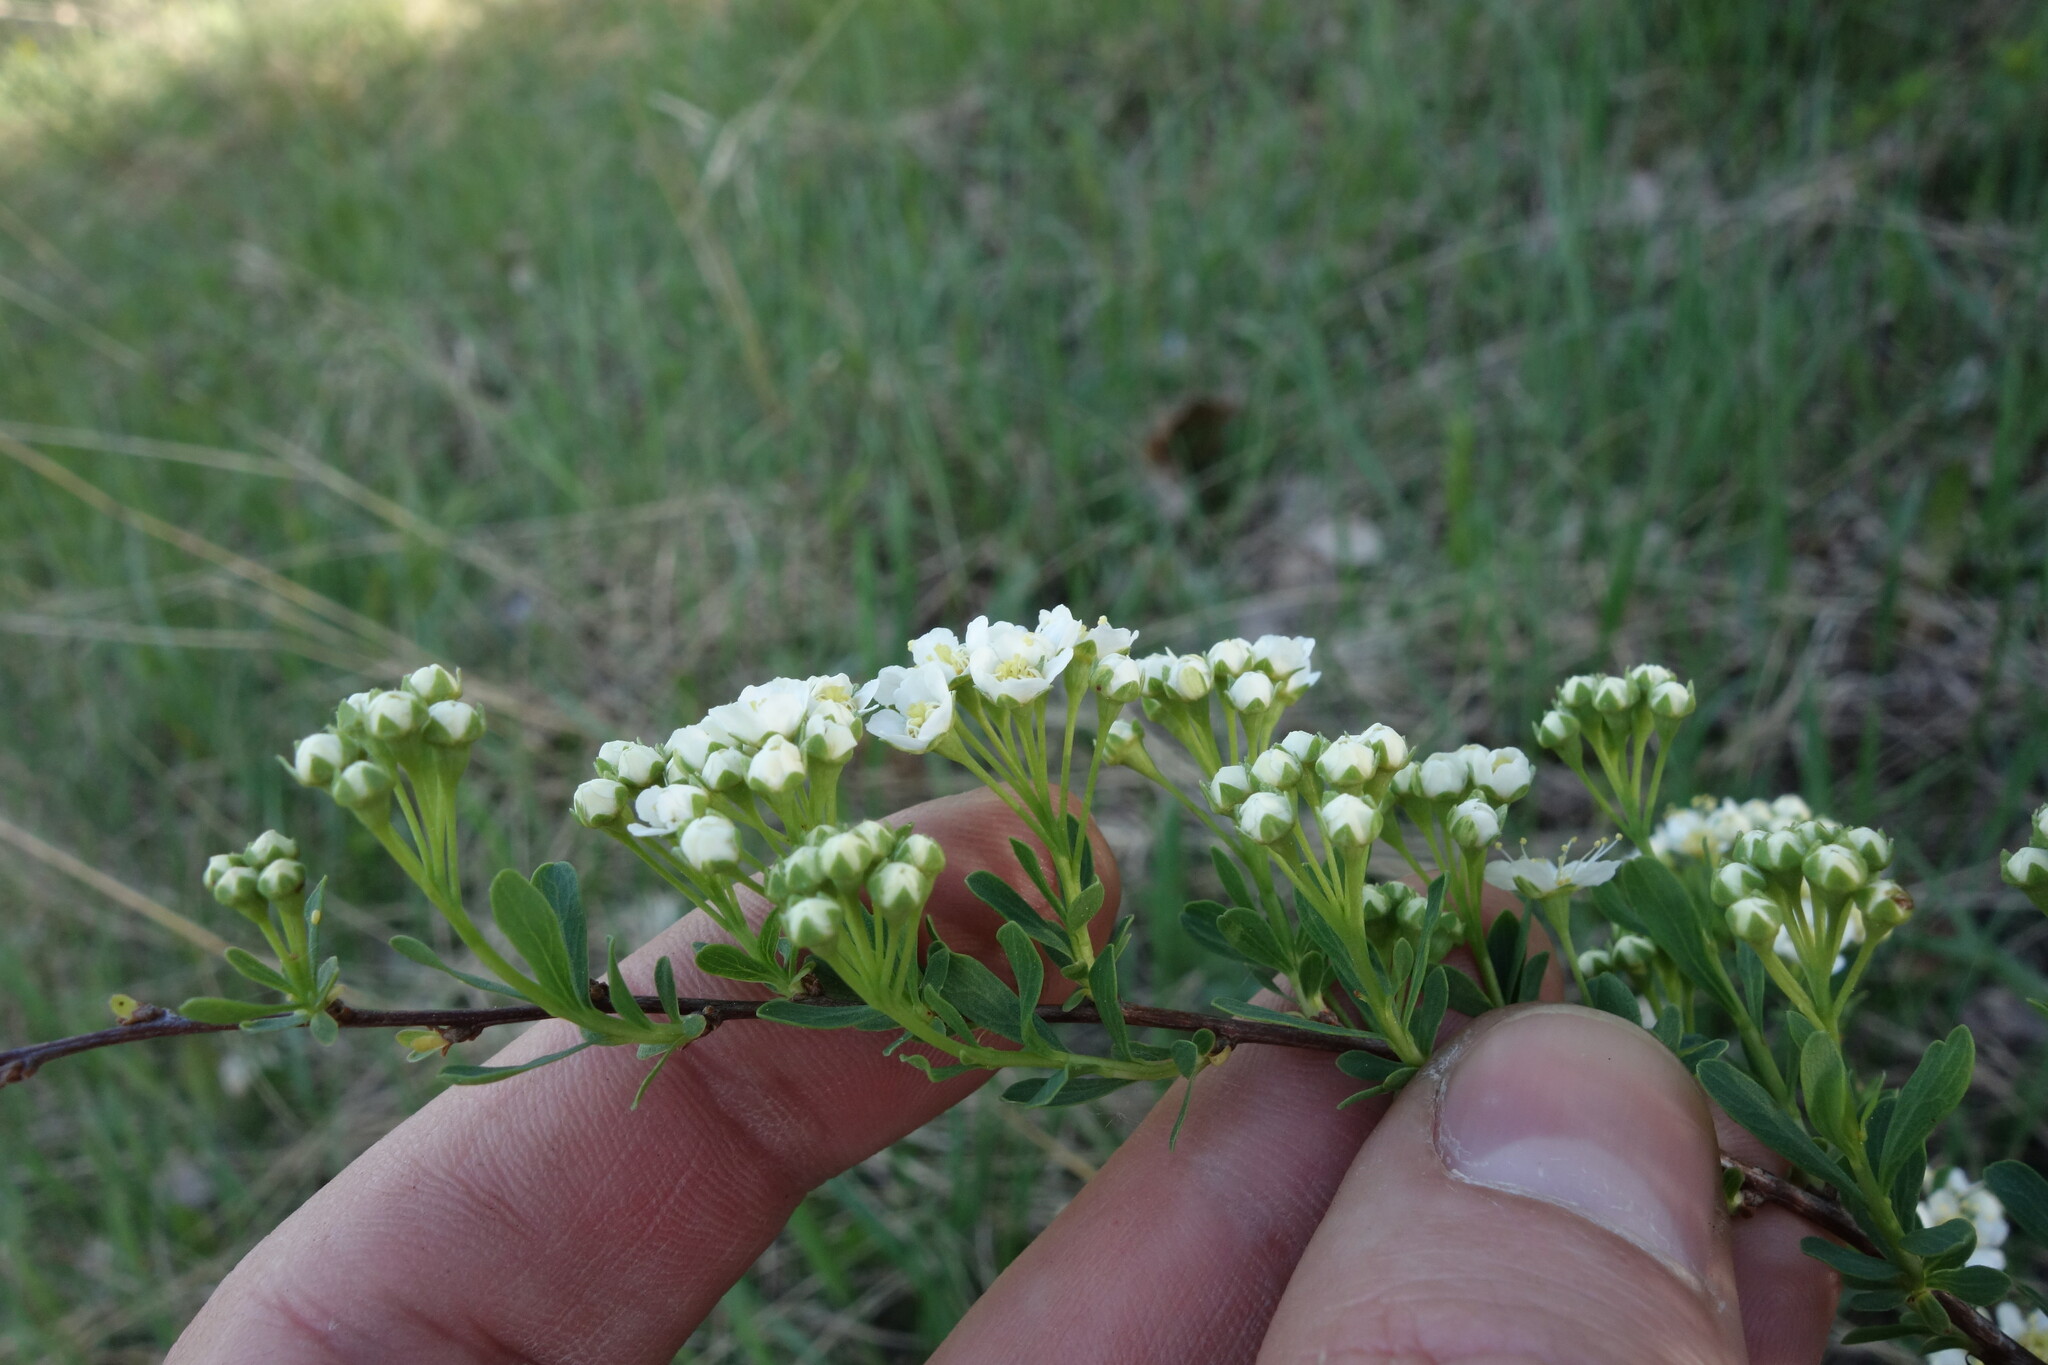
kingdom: Plantae
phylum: Tracheophyta
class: Magnoliopsida
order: Rosales
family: Rosaceae
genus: Spiraea
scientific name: Spiraea crenata
